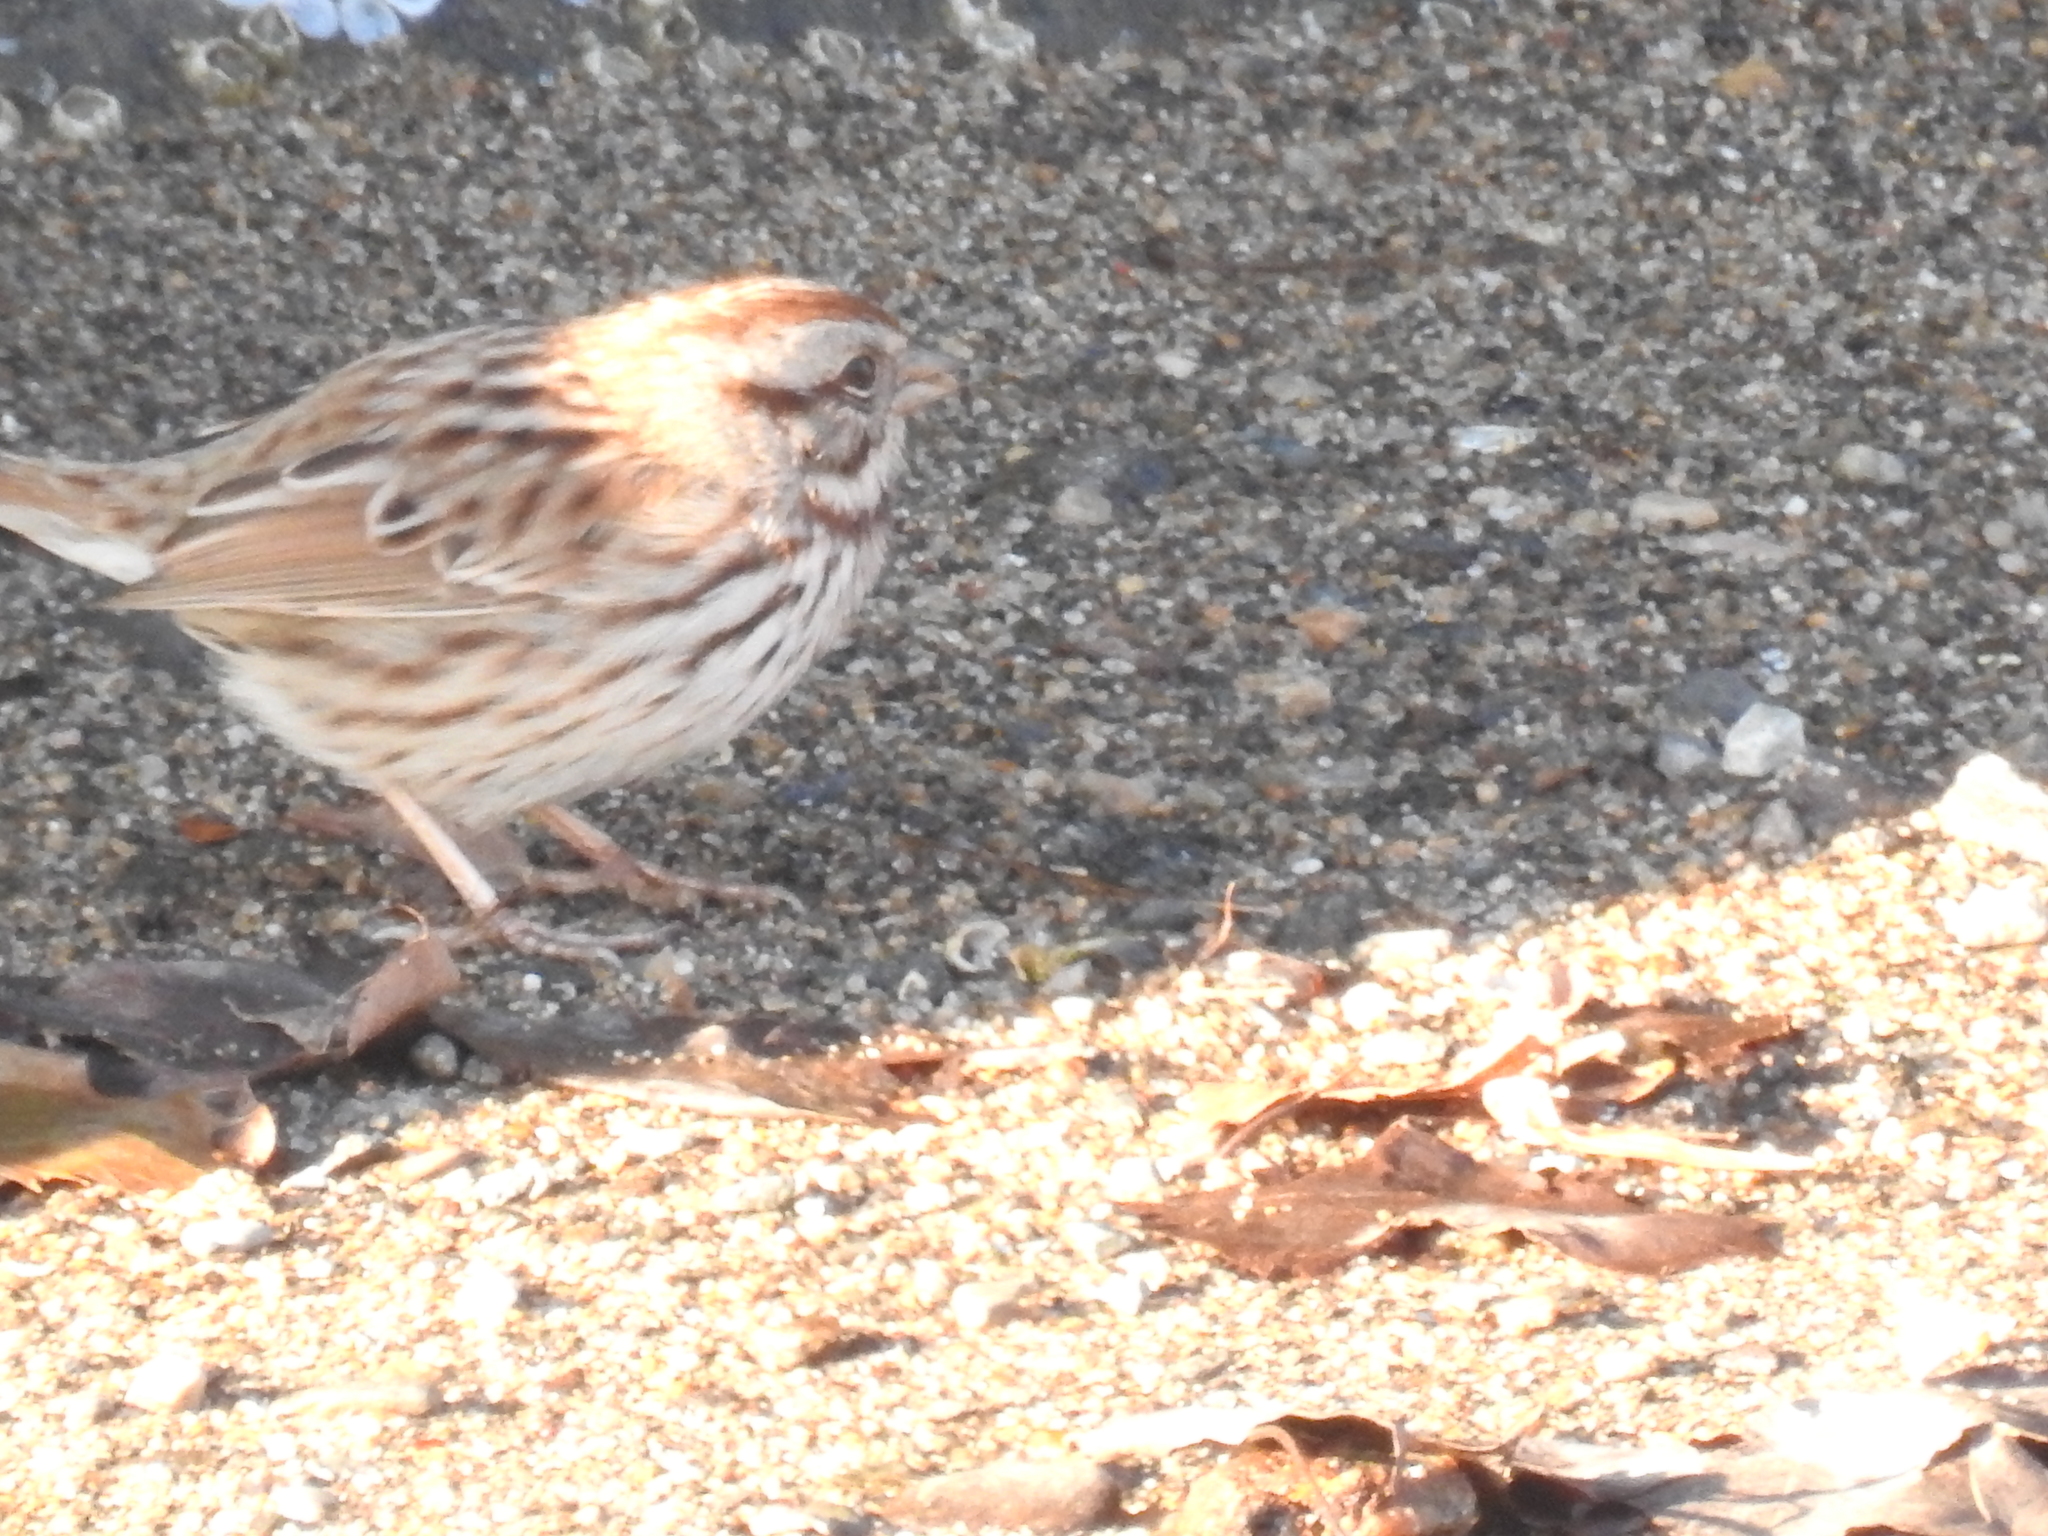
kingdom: Animalia
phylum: Chordata
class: Aves
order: Passeriformes
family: Passerellidae
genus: Melospiza
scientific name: Melospiza melodia
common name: Song sparrow
